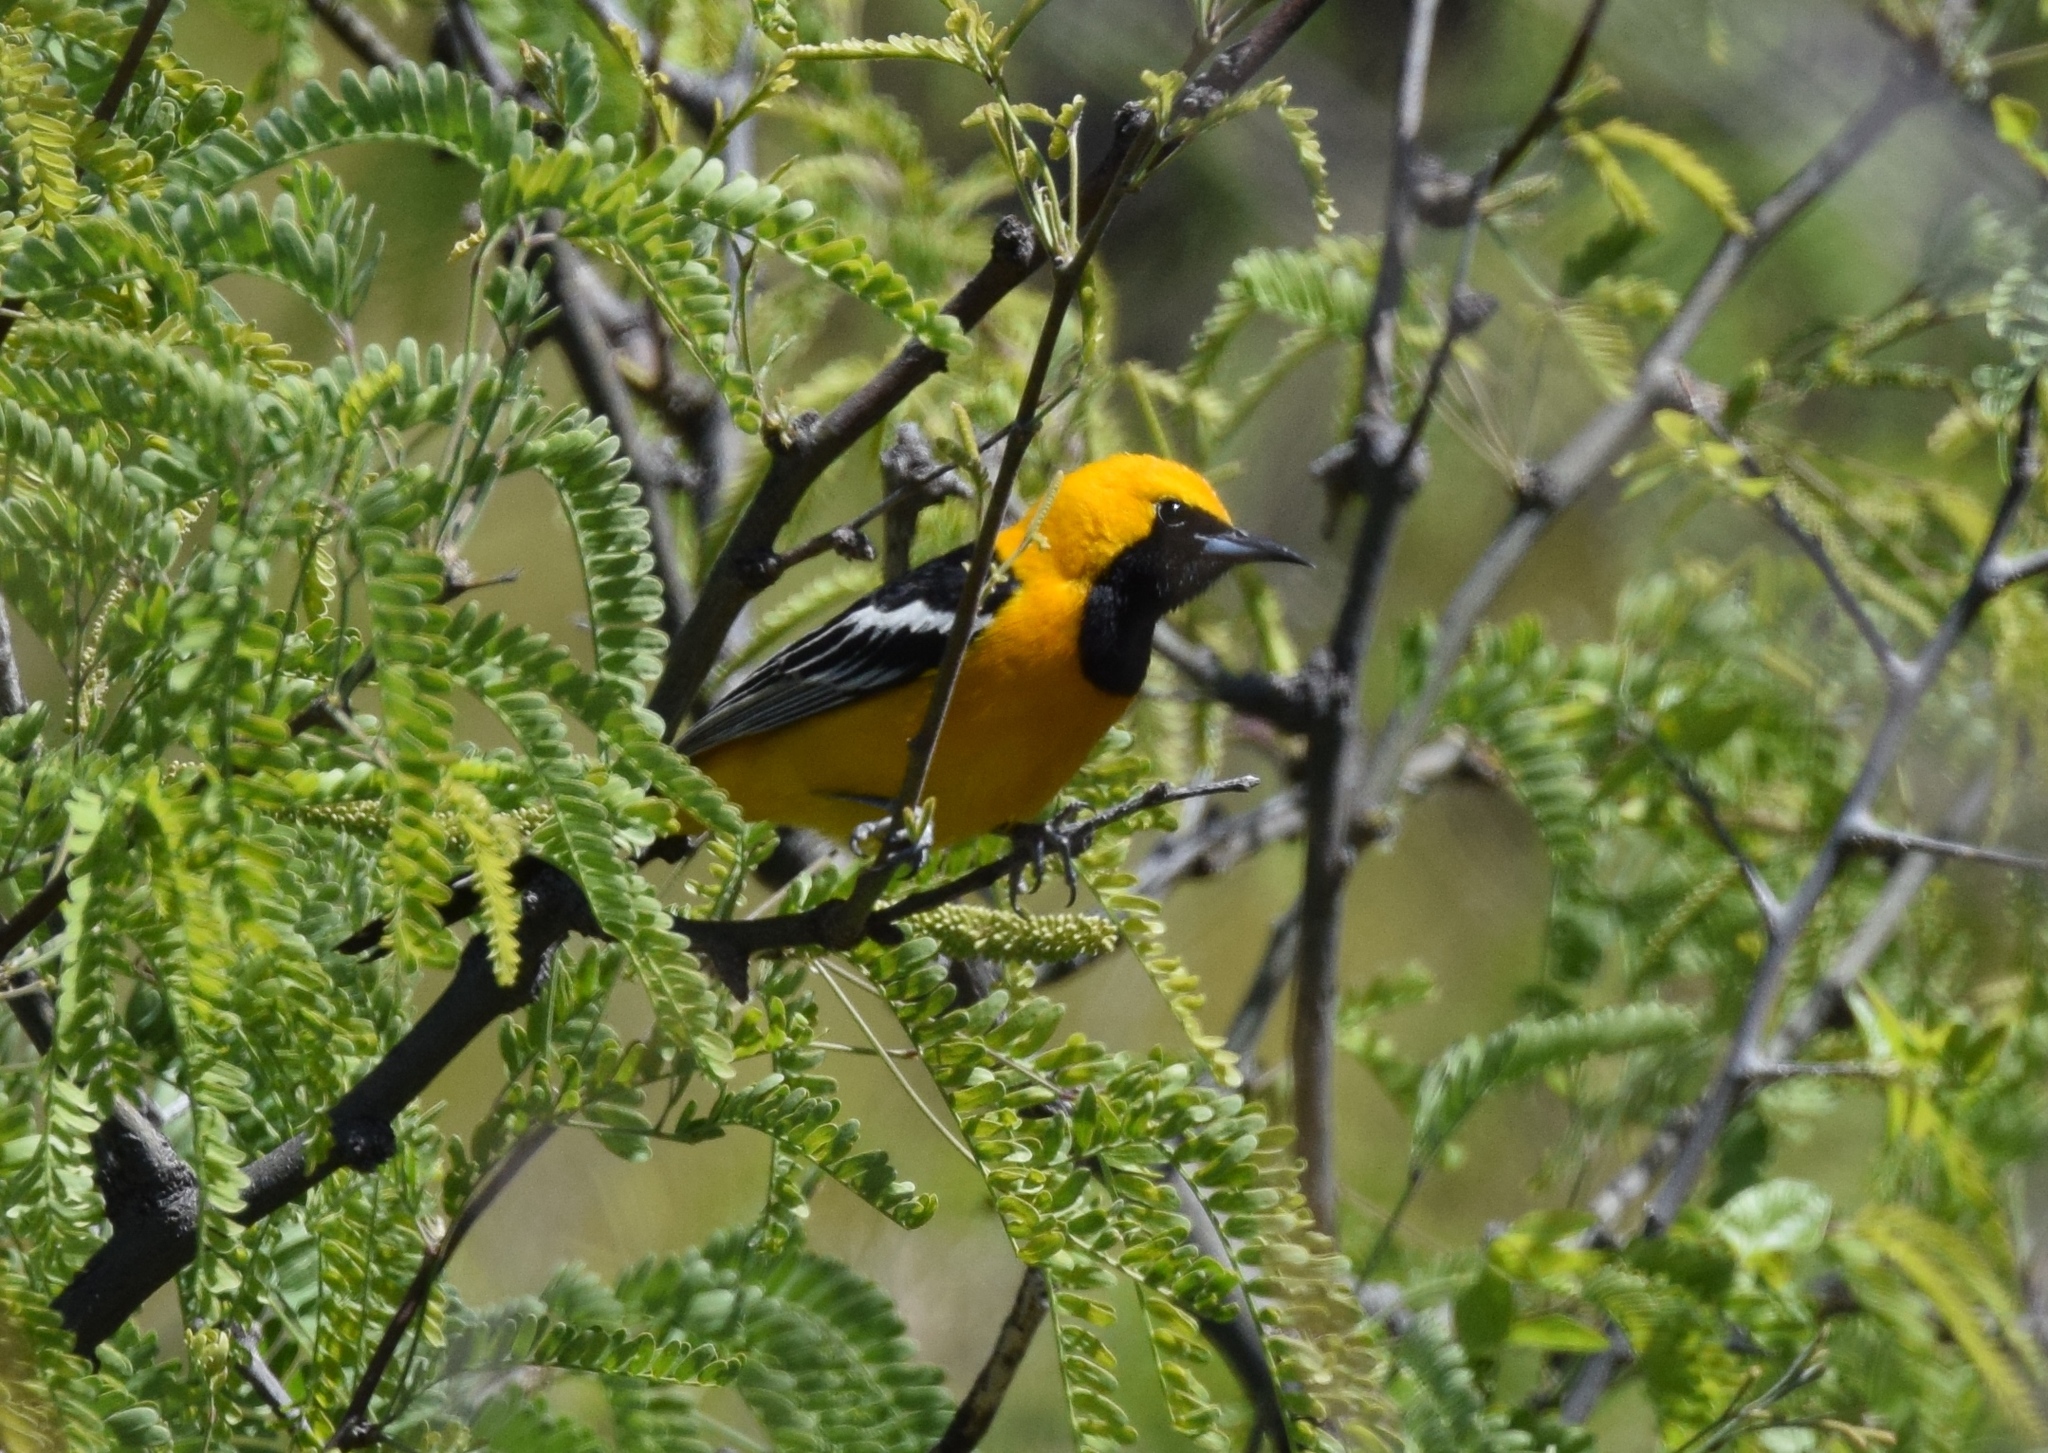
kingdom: Animalia
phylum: Chordata
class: Aves
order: Passeriformes
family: Icteridae
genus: Icterus
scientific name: Icterus cucullatus
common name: Hooded oriole
